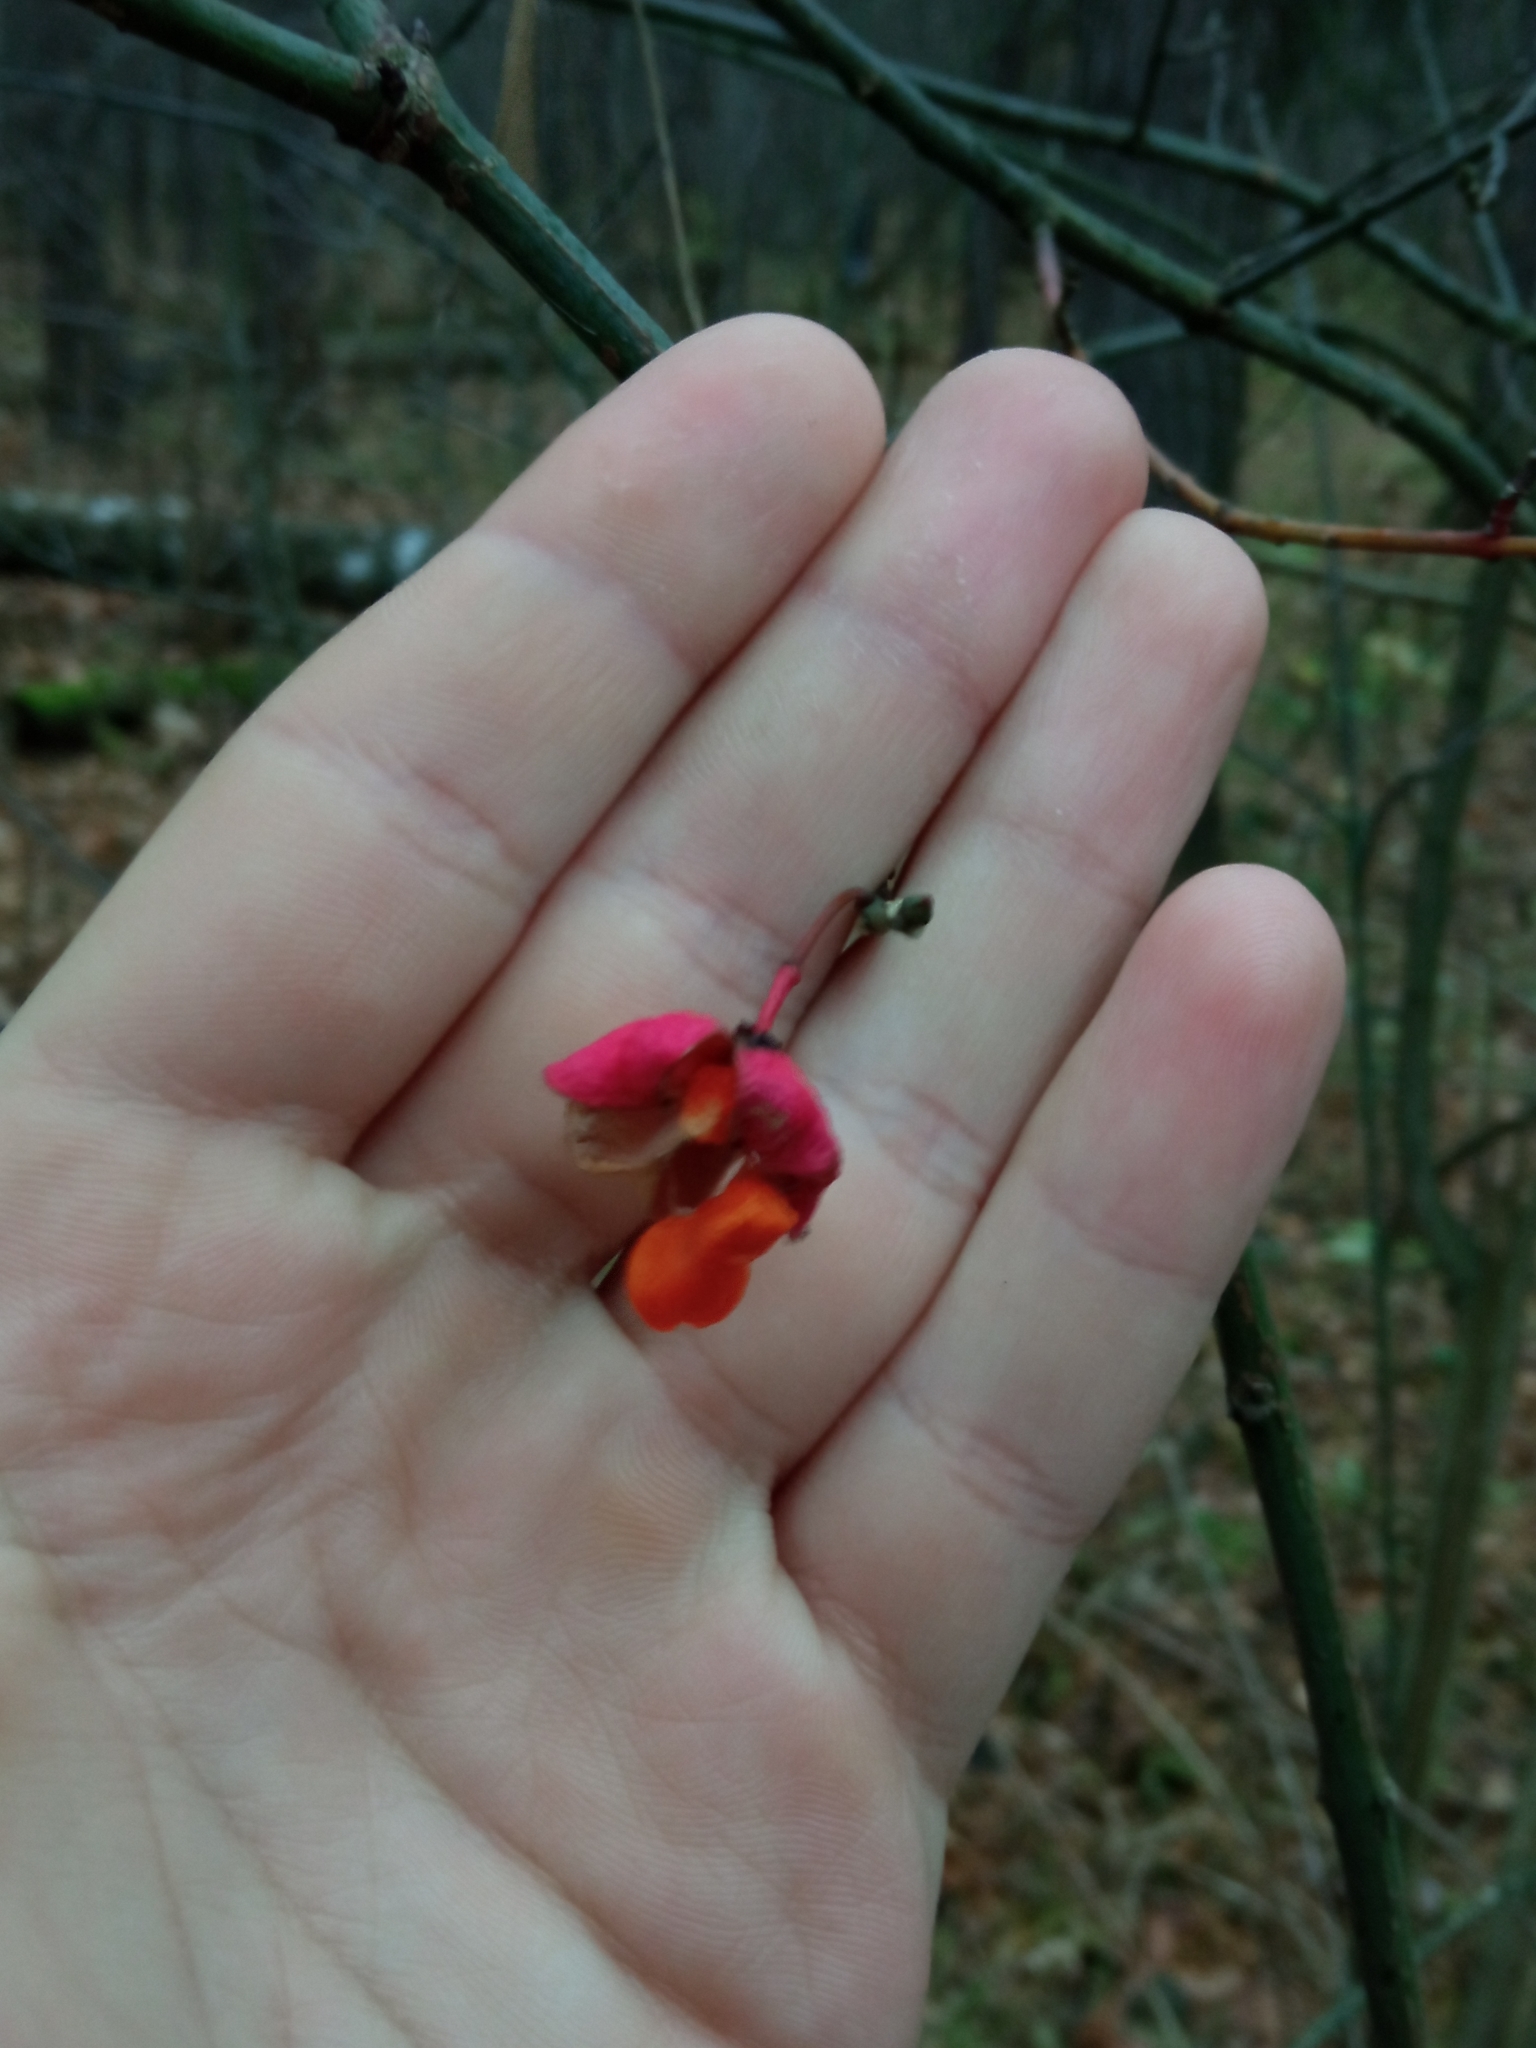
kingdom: Plantae
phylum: Tracheophyta
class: Magnoliopsida
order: Celastrales
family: Celastraceae
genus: Euonymus
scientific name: Euonymus europaeus
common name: Spindle
